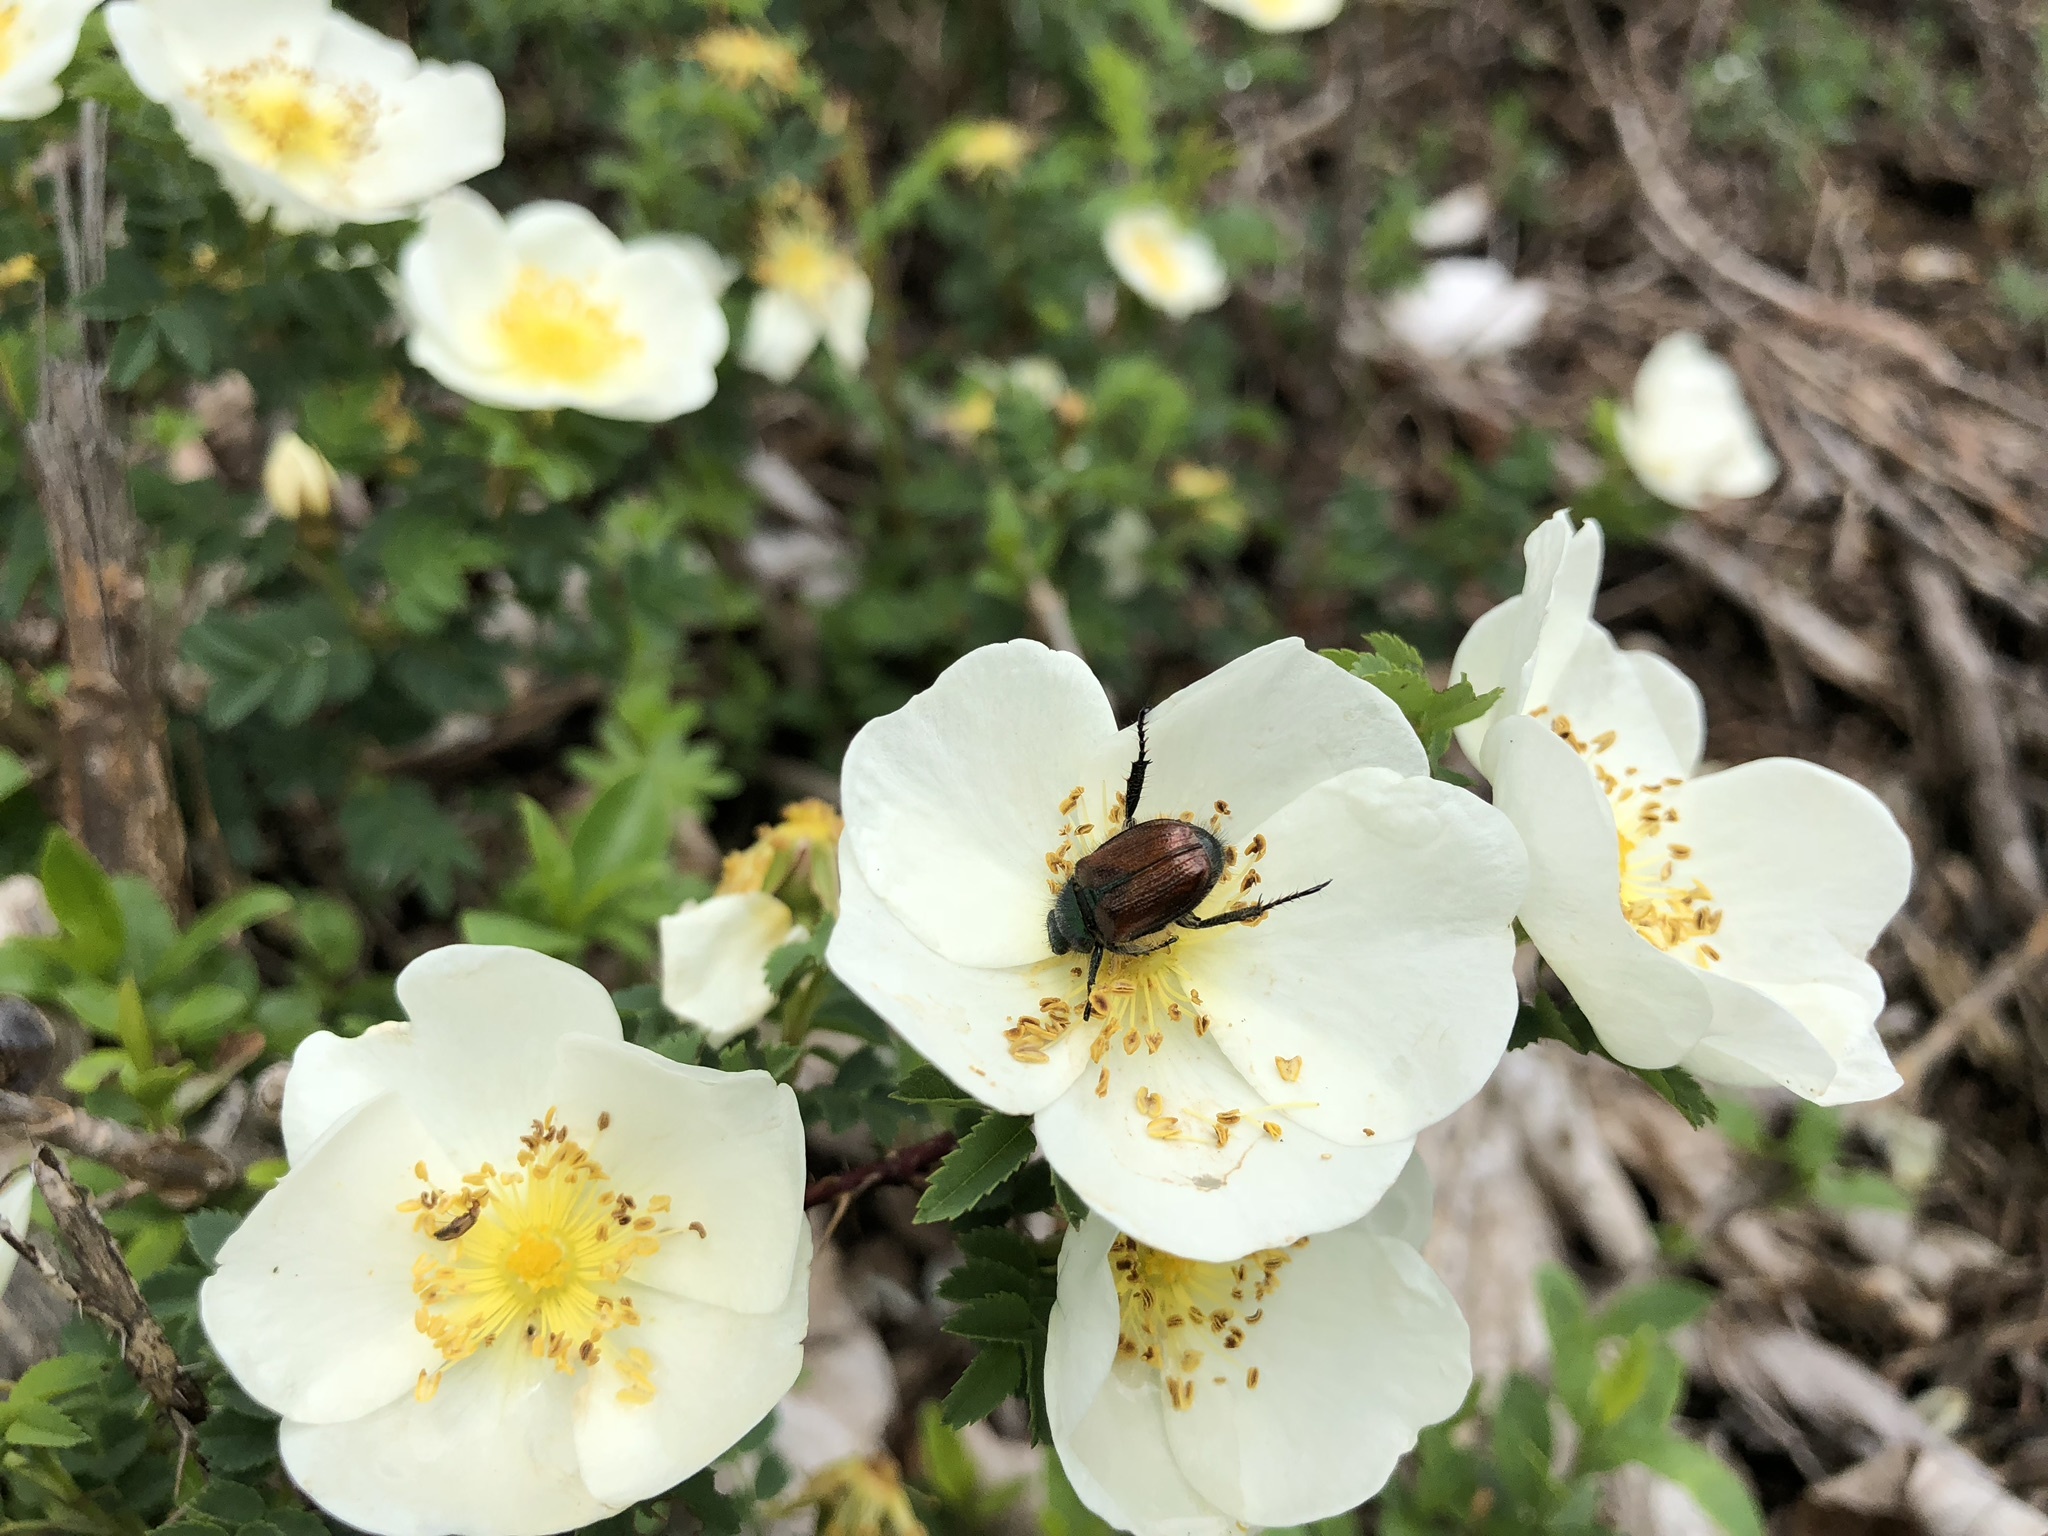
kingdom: Animalia
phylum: Arthropoda
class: Insecta
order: Coleoptera
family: Scarabaeidae
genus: Phyllopertha
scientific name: Phyllopertha horticola
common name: Garden chafer
